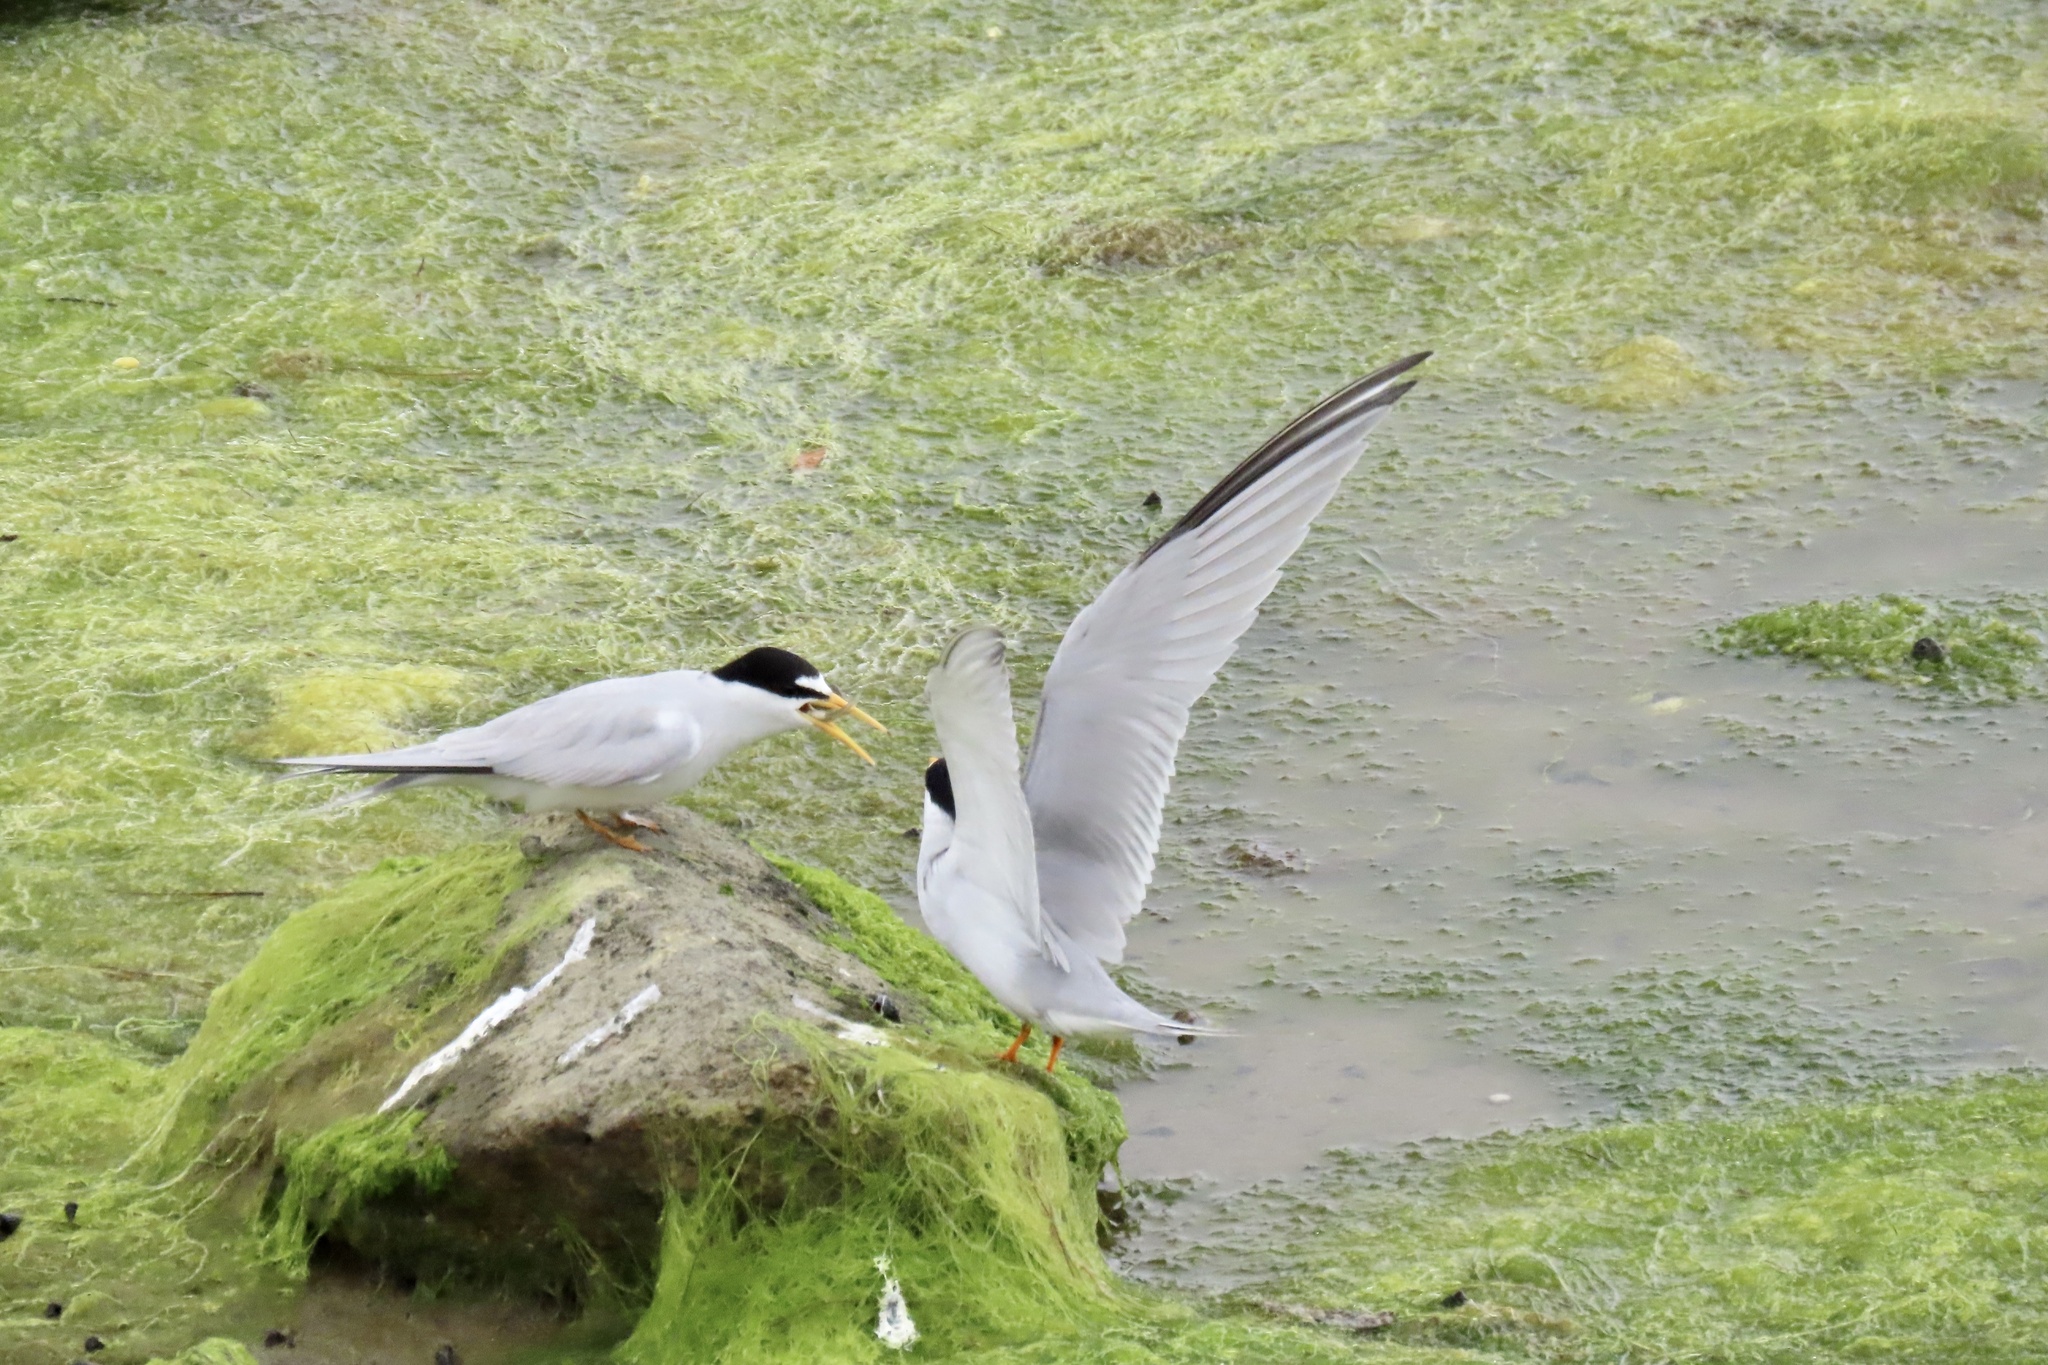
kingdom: Animalia
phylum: Chordata
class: Aves
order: Charadriiformes
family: Laridae
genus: Sternula
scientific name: Sternula antillarum
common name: Least tern
